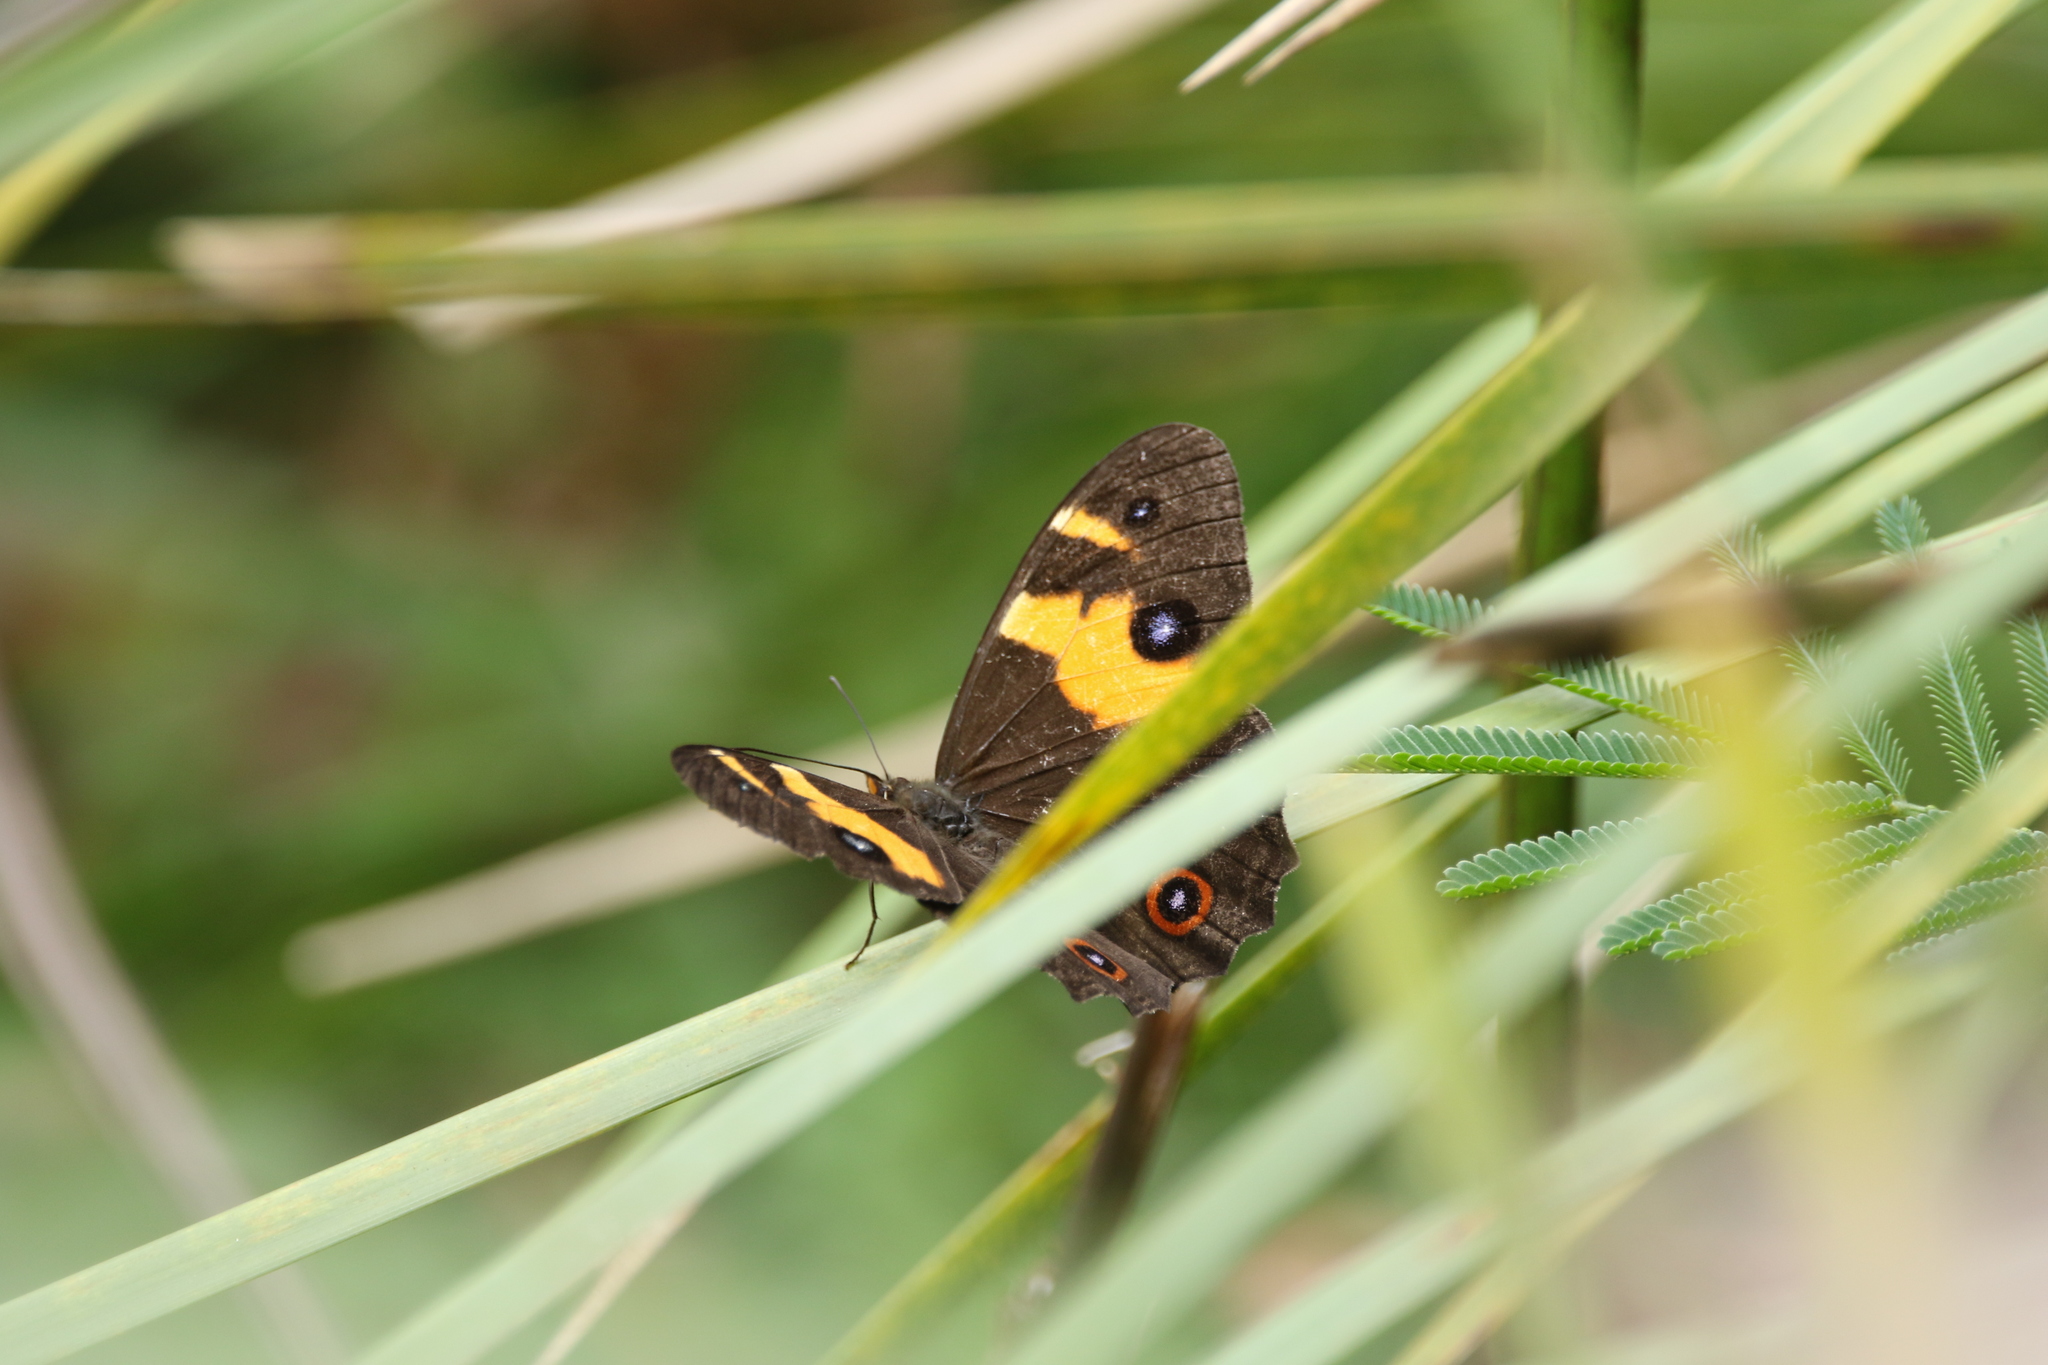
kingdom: Animalia
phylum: Arthropoda
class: Insecta
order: Lepidoptera
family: Nymphalidae
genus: Tisiphone
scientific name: Tisiphone abeona
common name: Swordgrass brown
